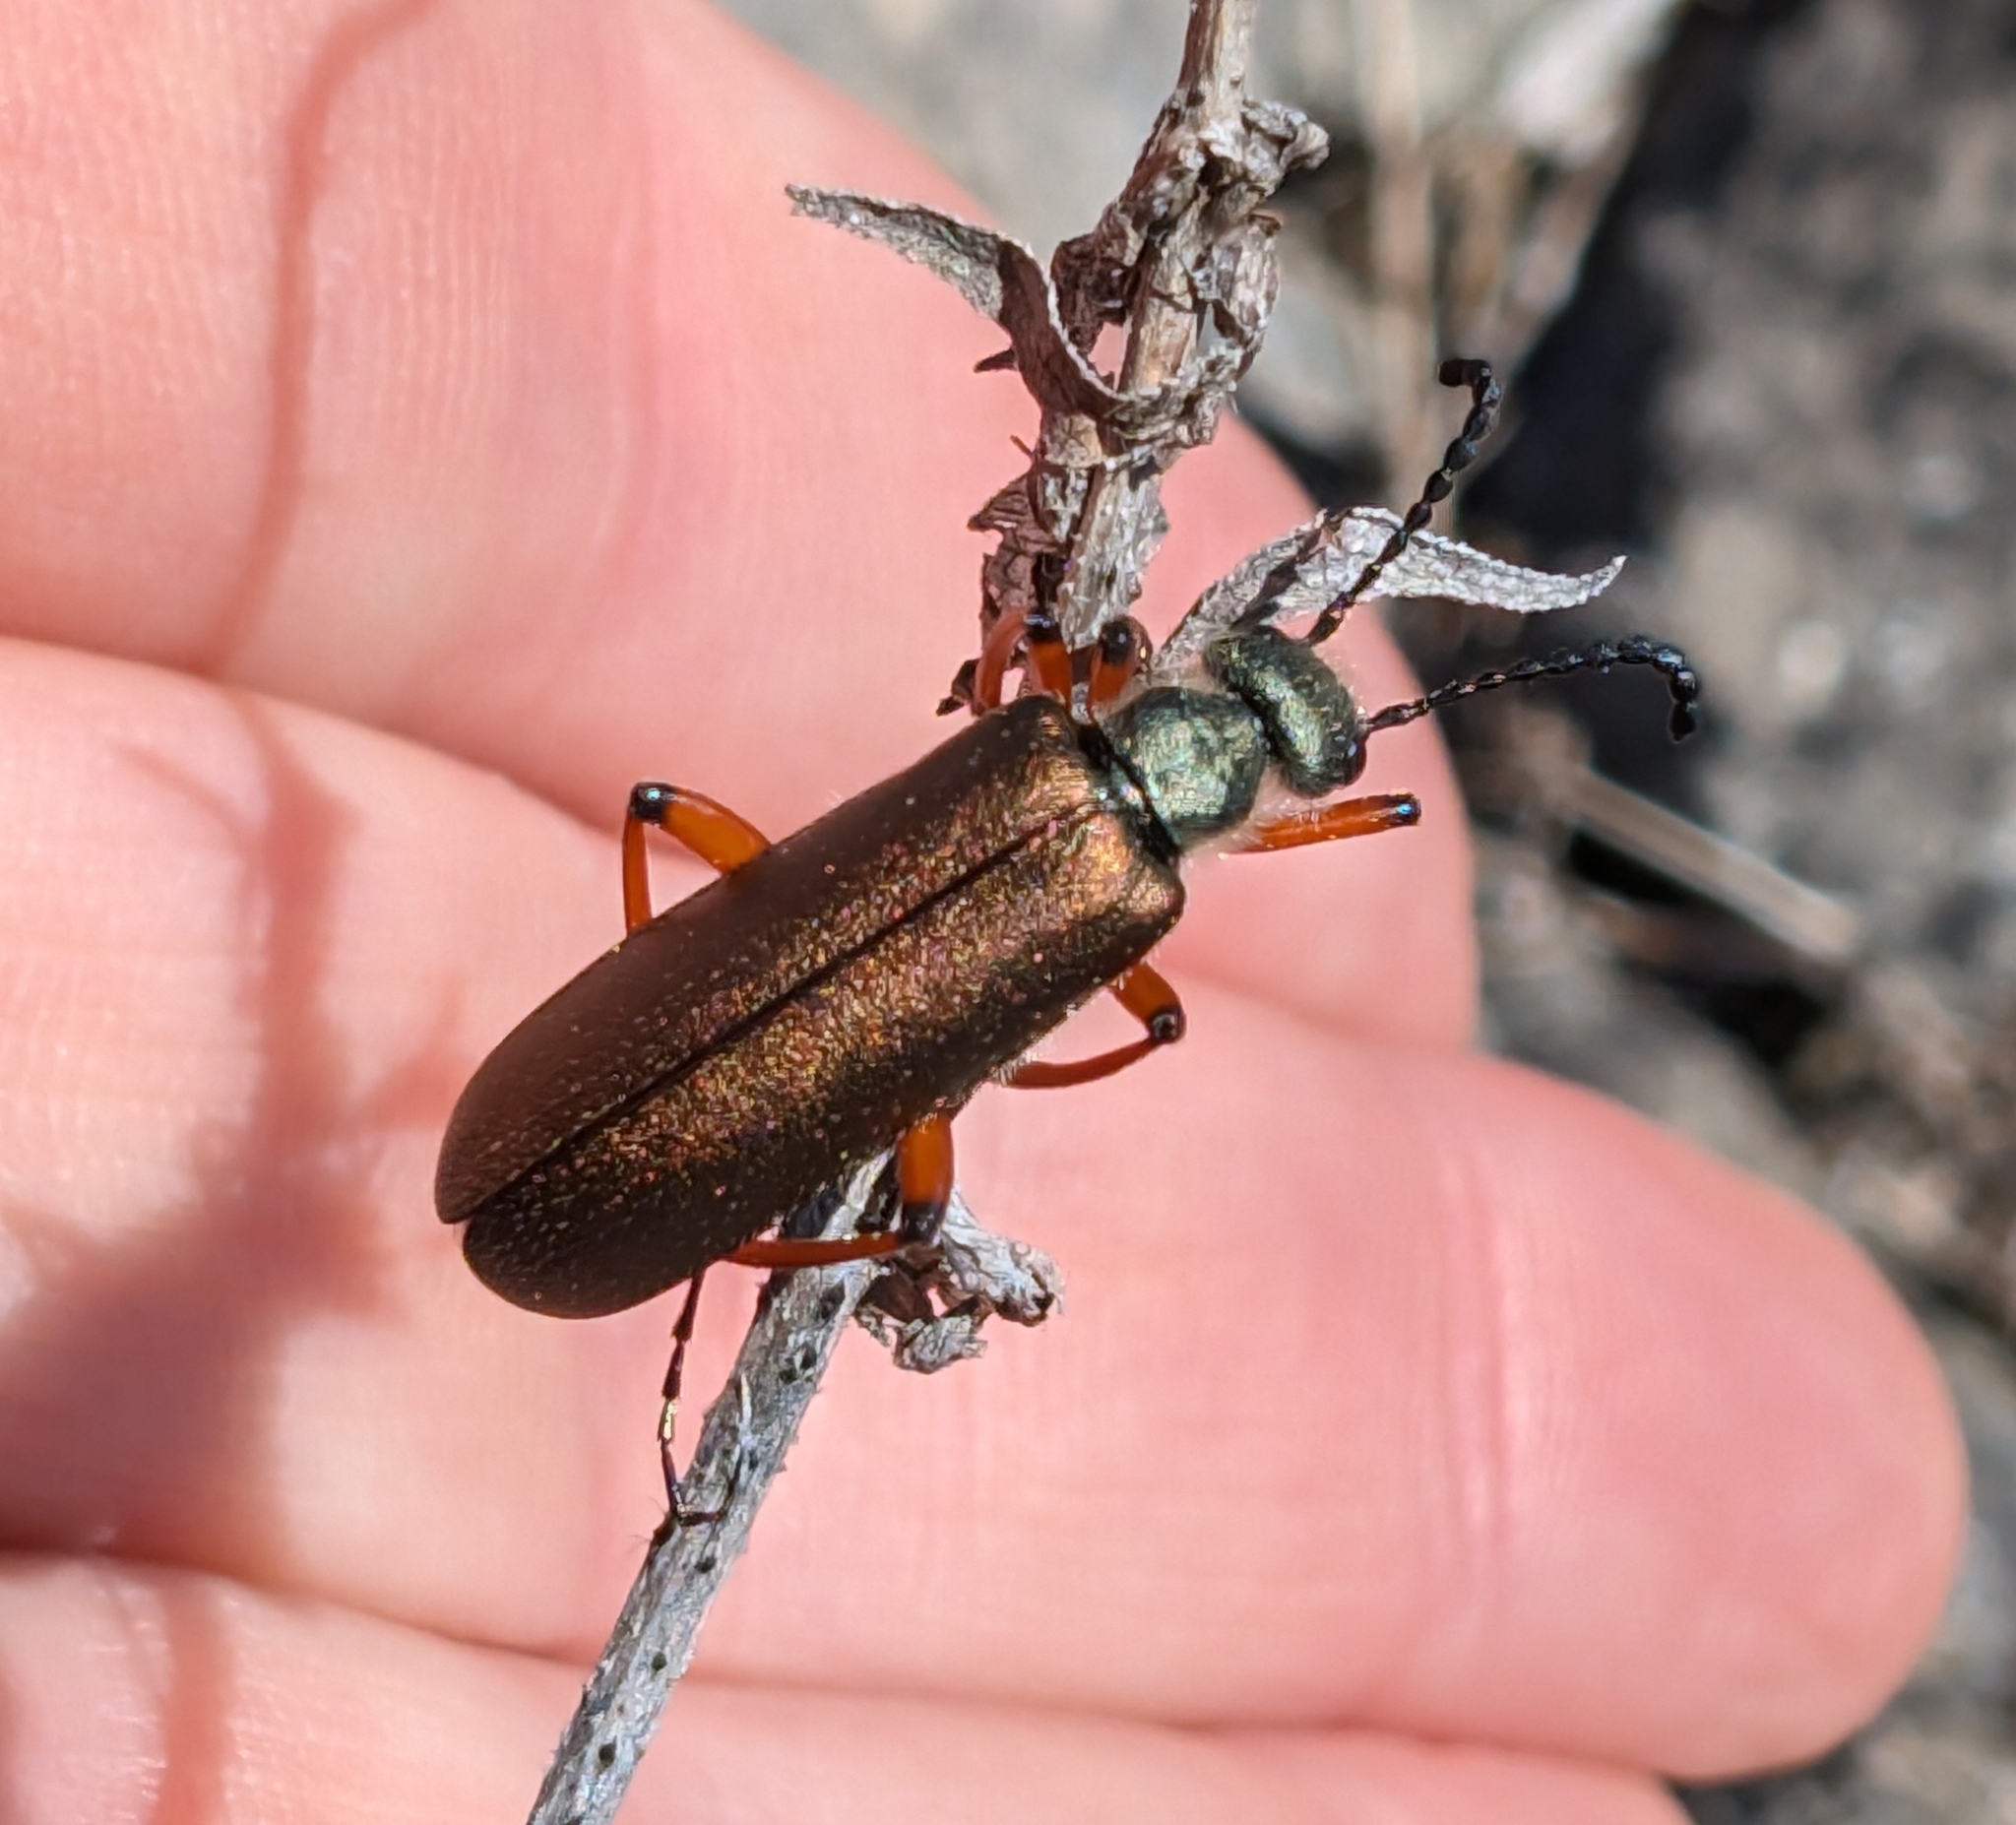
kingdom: Animalia
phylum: Arthropoda
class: Insecta
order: Coleoptera
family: Meloidae
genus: Lytta
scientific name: Lytta aenea
